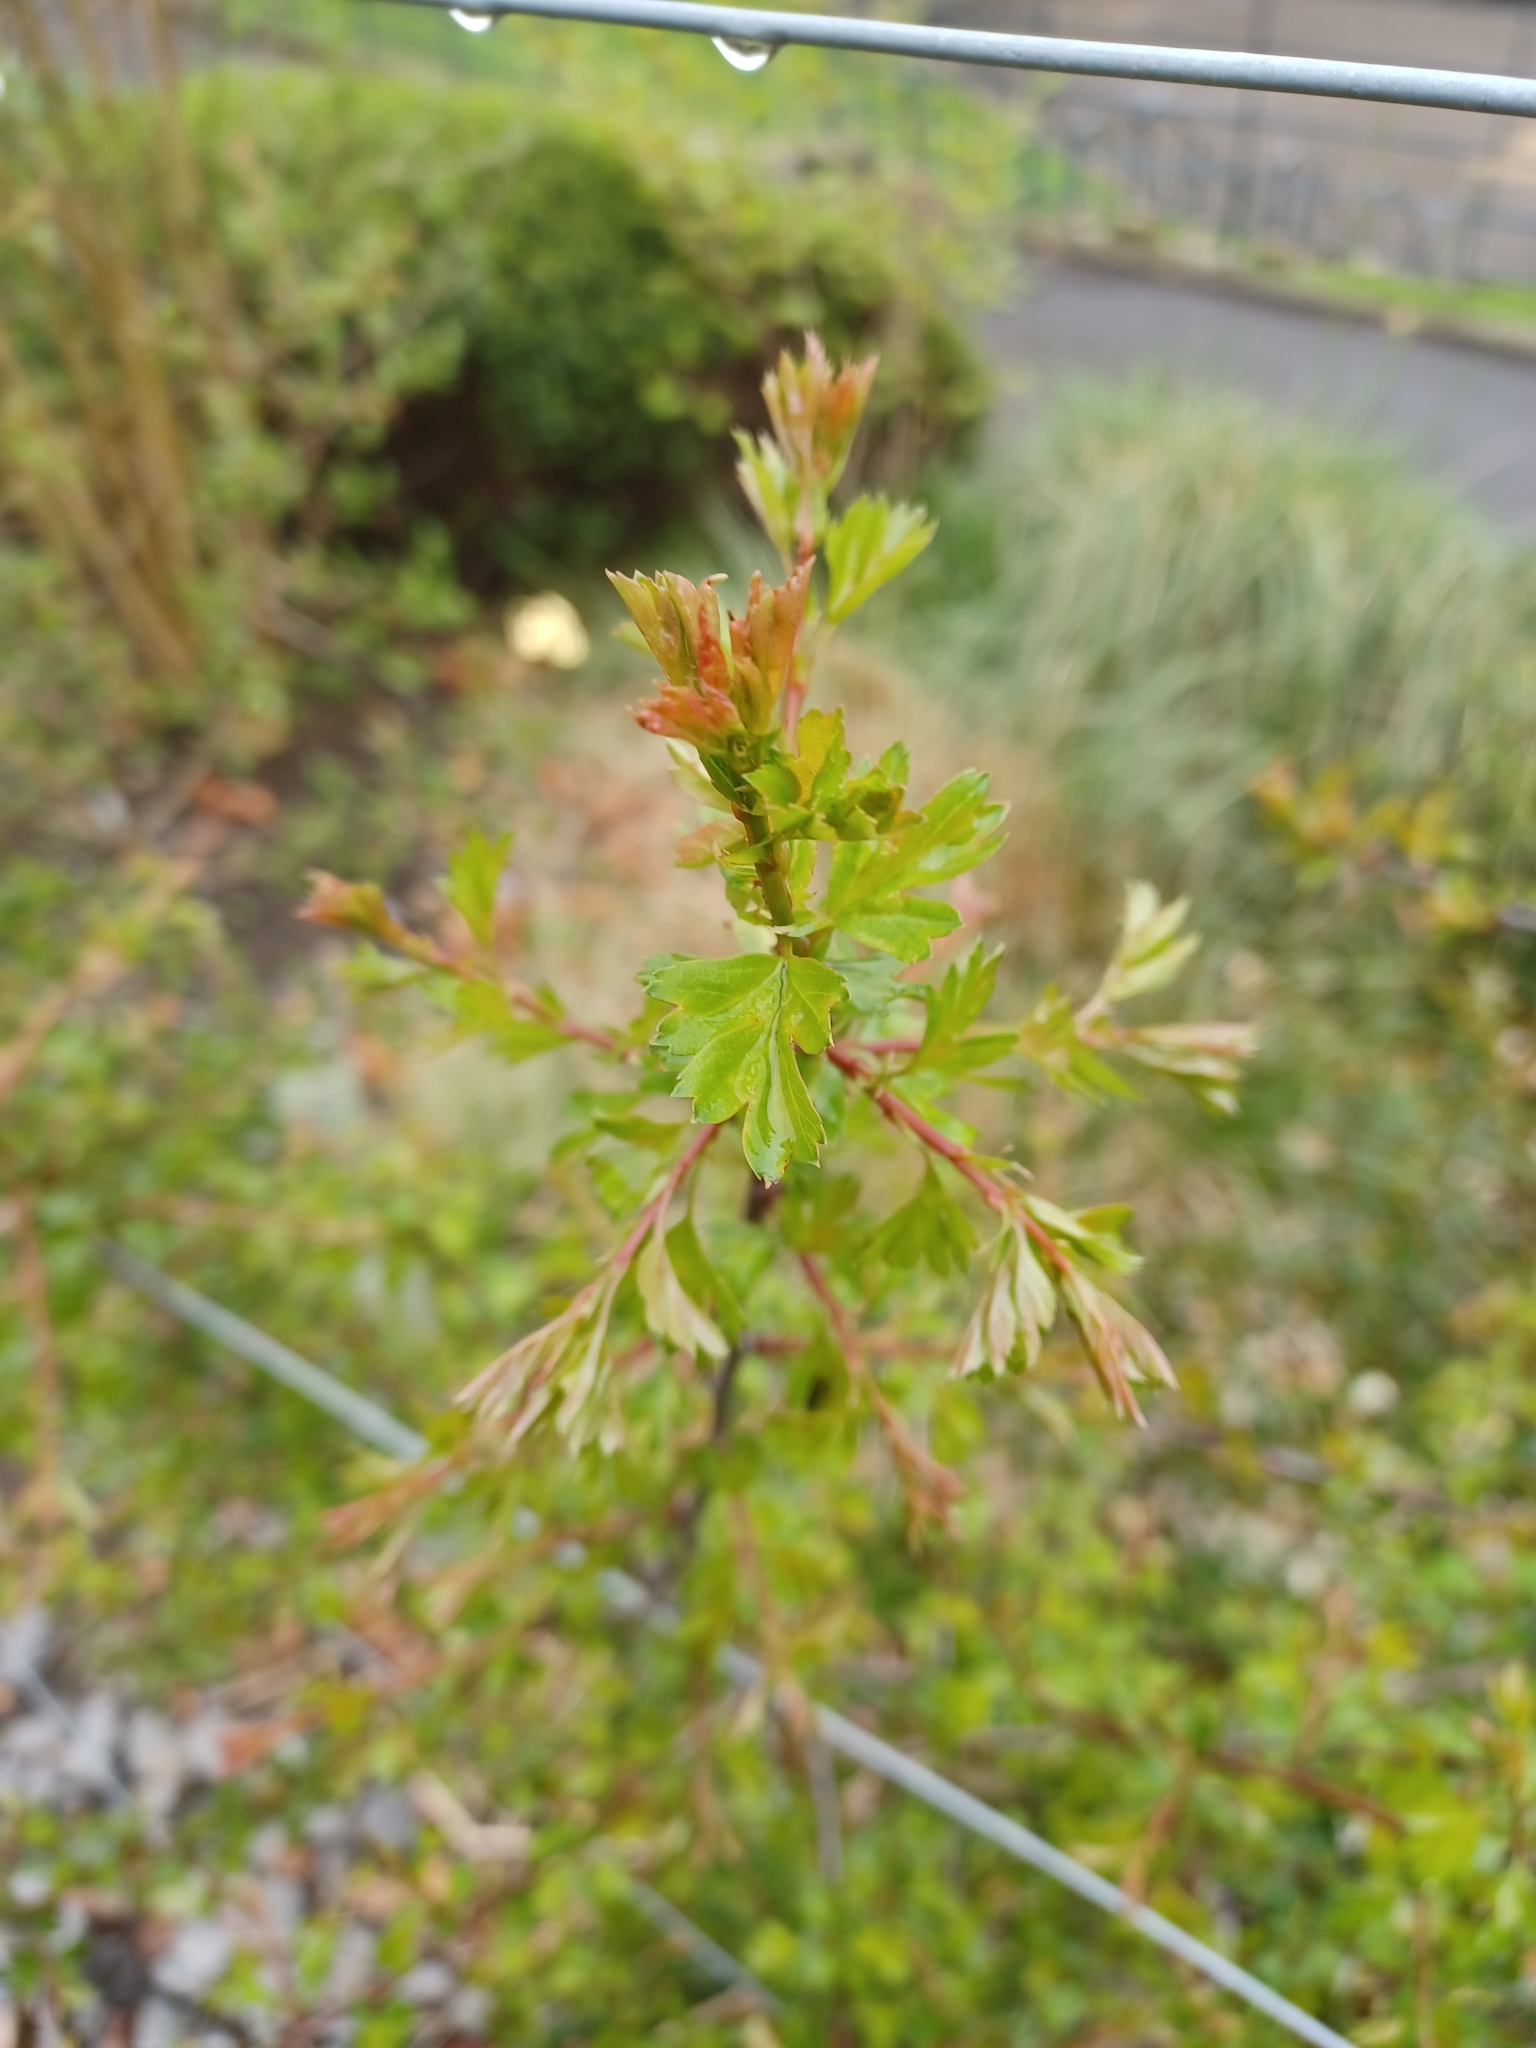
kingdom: Plantae
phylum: Tracheophyta
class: Magnoliopsida
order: Rosales
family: Rosaceae
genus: Crataegus
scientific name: Crataegus monogyna
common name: Hawthorn
